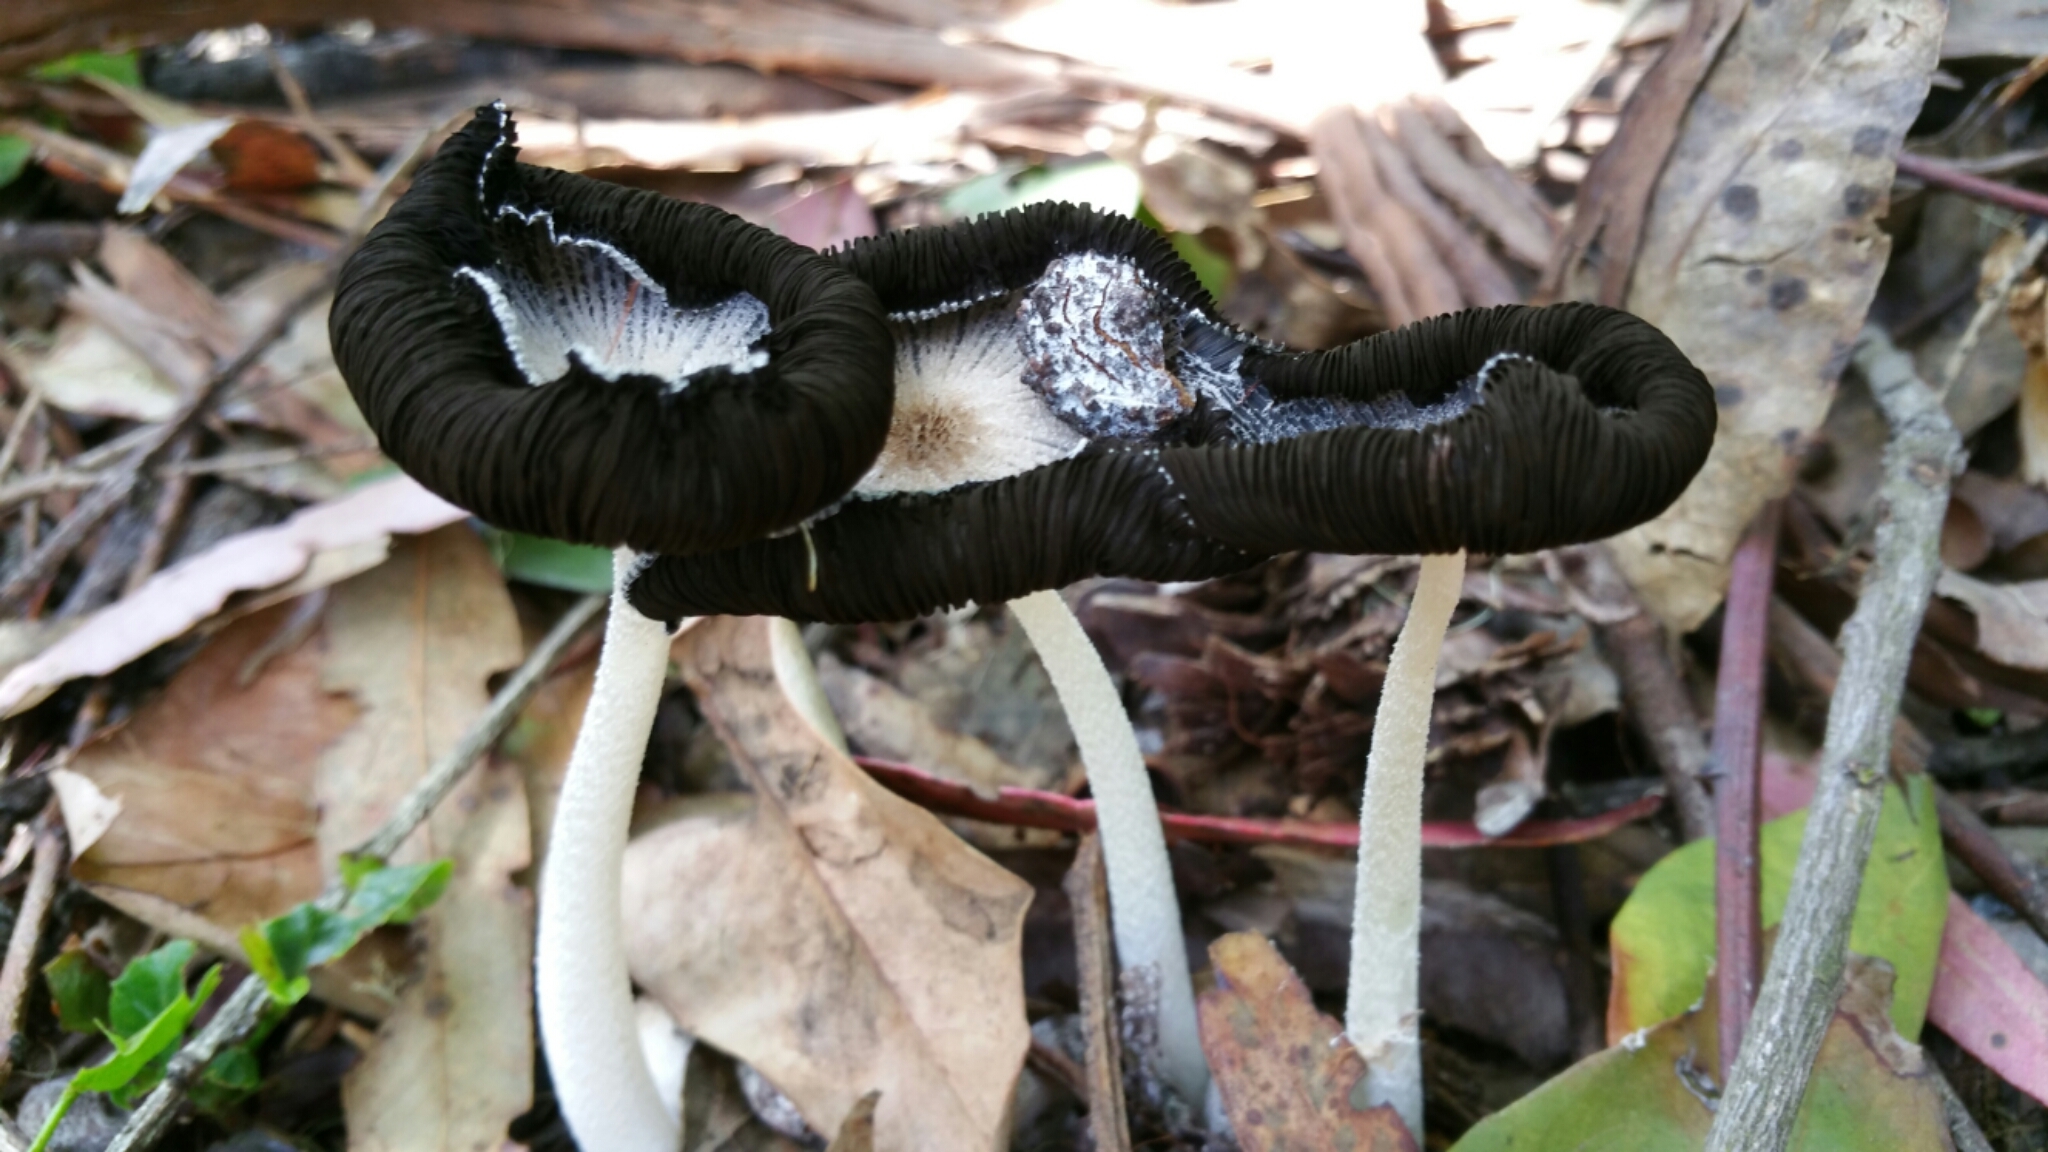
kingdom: Fungi
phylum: Basidiomycota
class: Agaricomycetes
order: Agaricales
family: Psathyrellaceae
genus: Coprinopsis
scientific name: Coprinopsis atramentaria
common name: Common ink-cap
